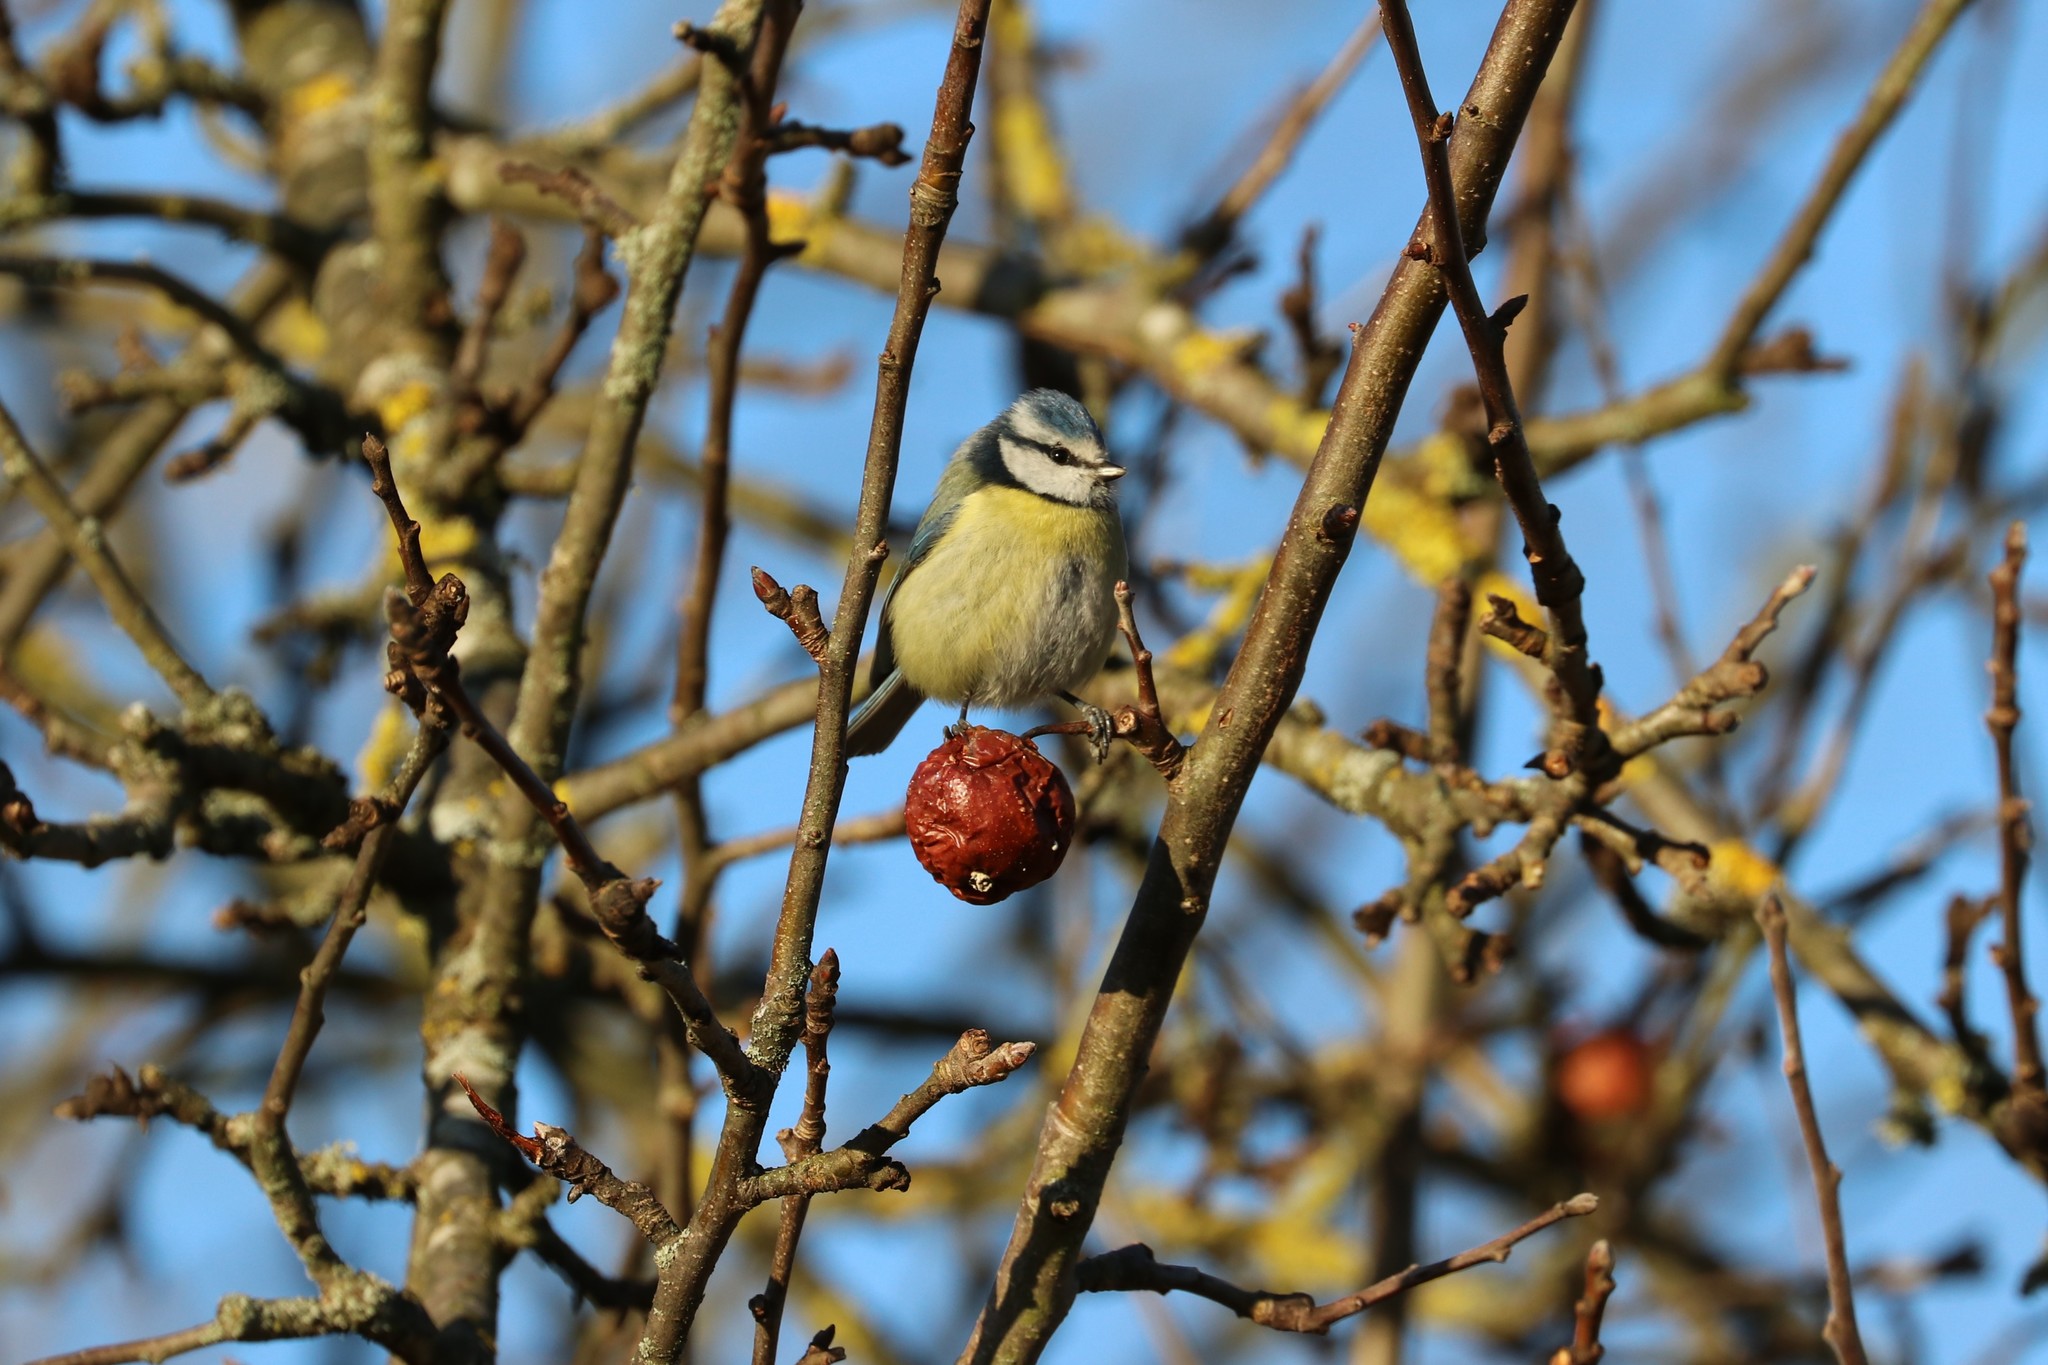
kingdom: Animalia
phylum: Chordata
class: Aves
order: Passeriformes
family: Paridae
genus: Cyanistes
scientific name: Cyanistes caeruleus
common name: Eurasian blue tit
